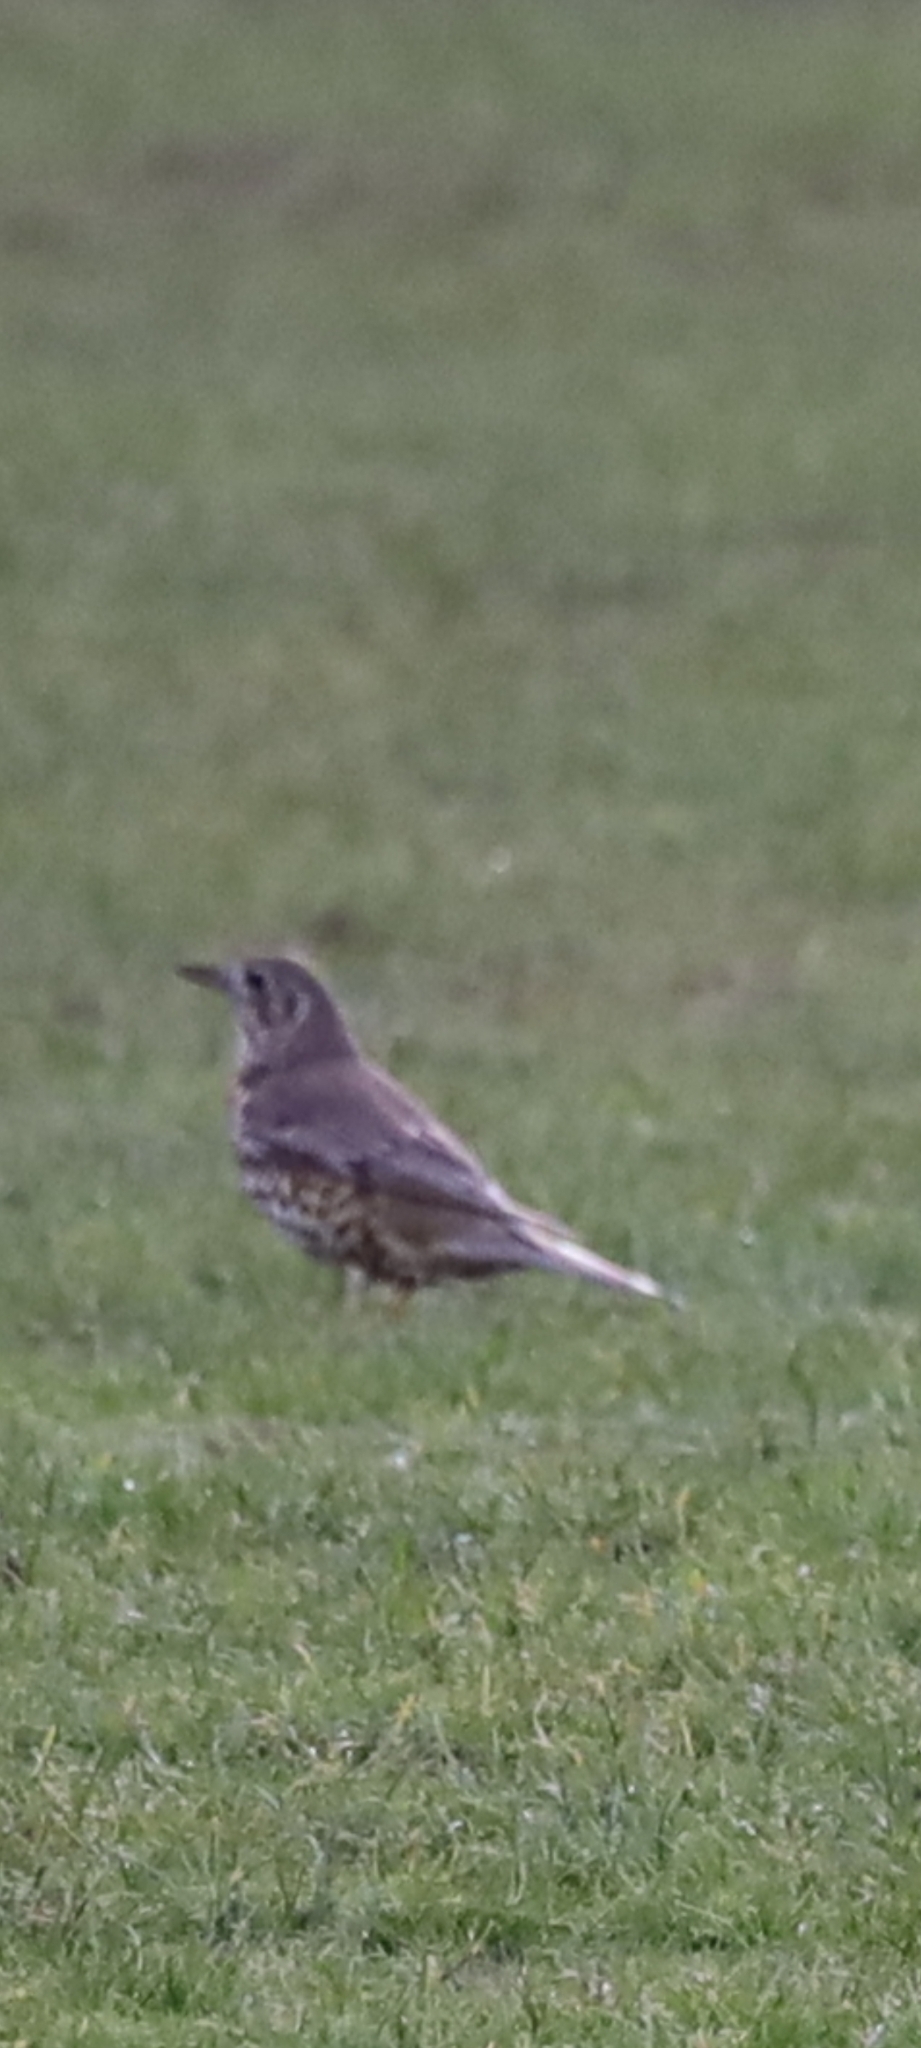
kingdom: Animalia
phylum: Chordata
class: Aves
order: Passeriformes
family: Turdidae
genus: Turdus
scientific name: Turdus viscivorus
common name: Mistle thrush
